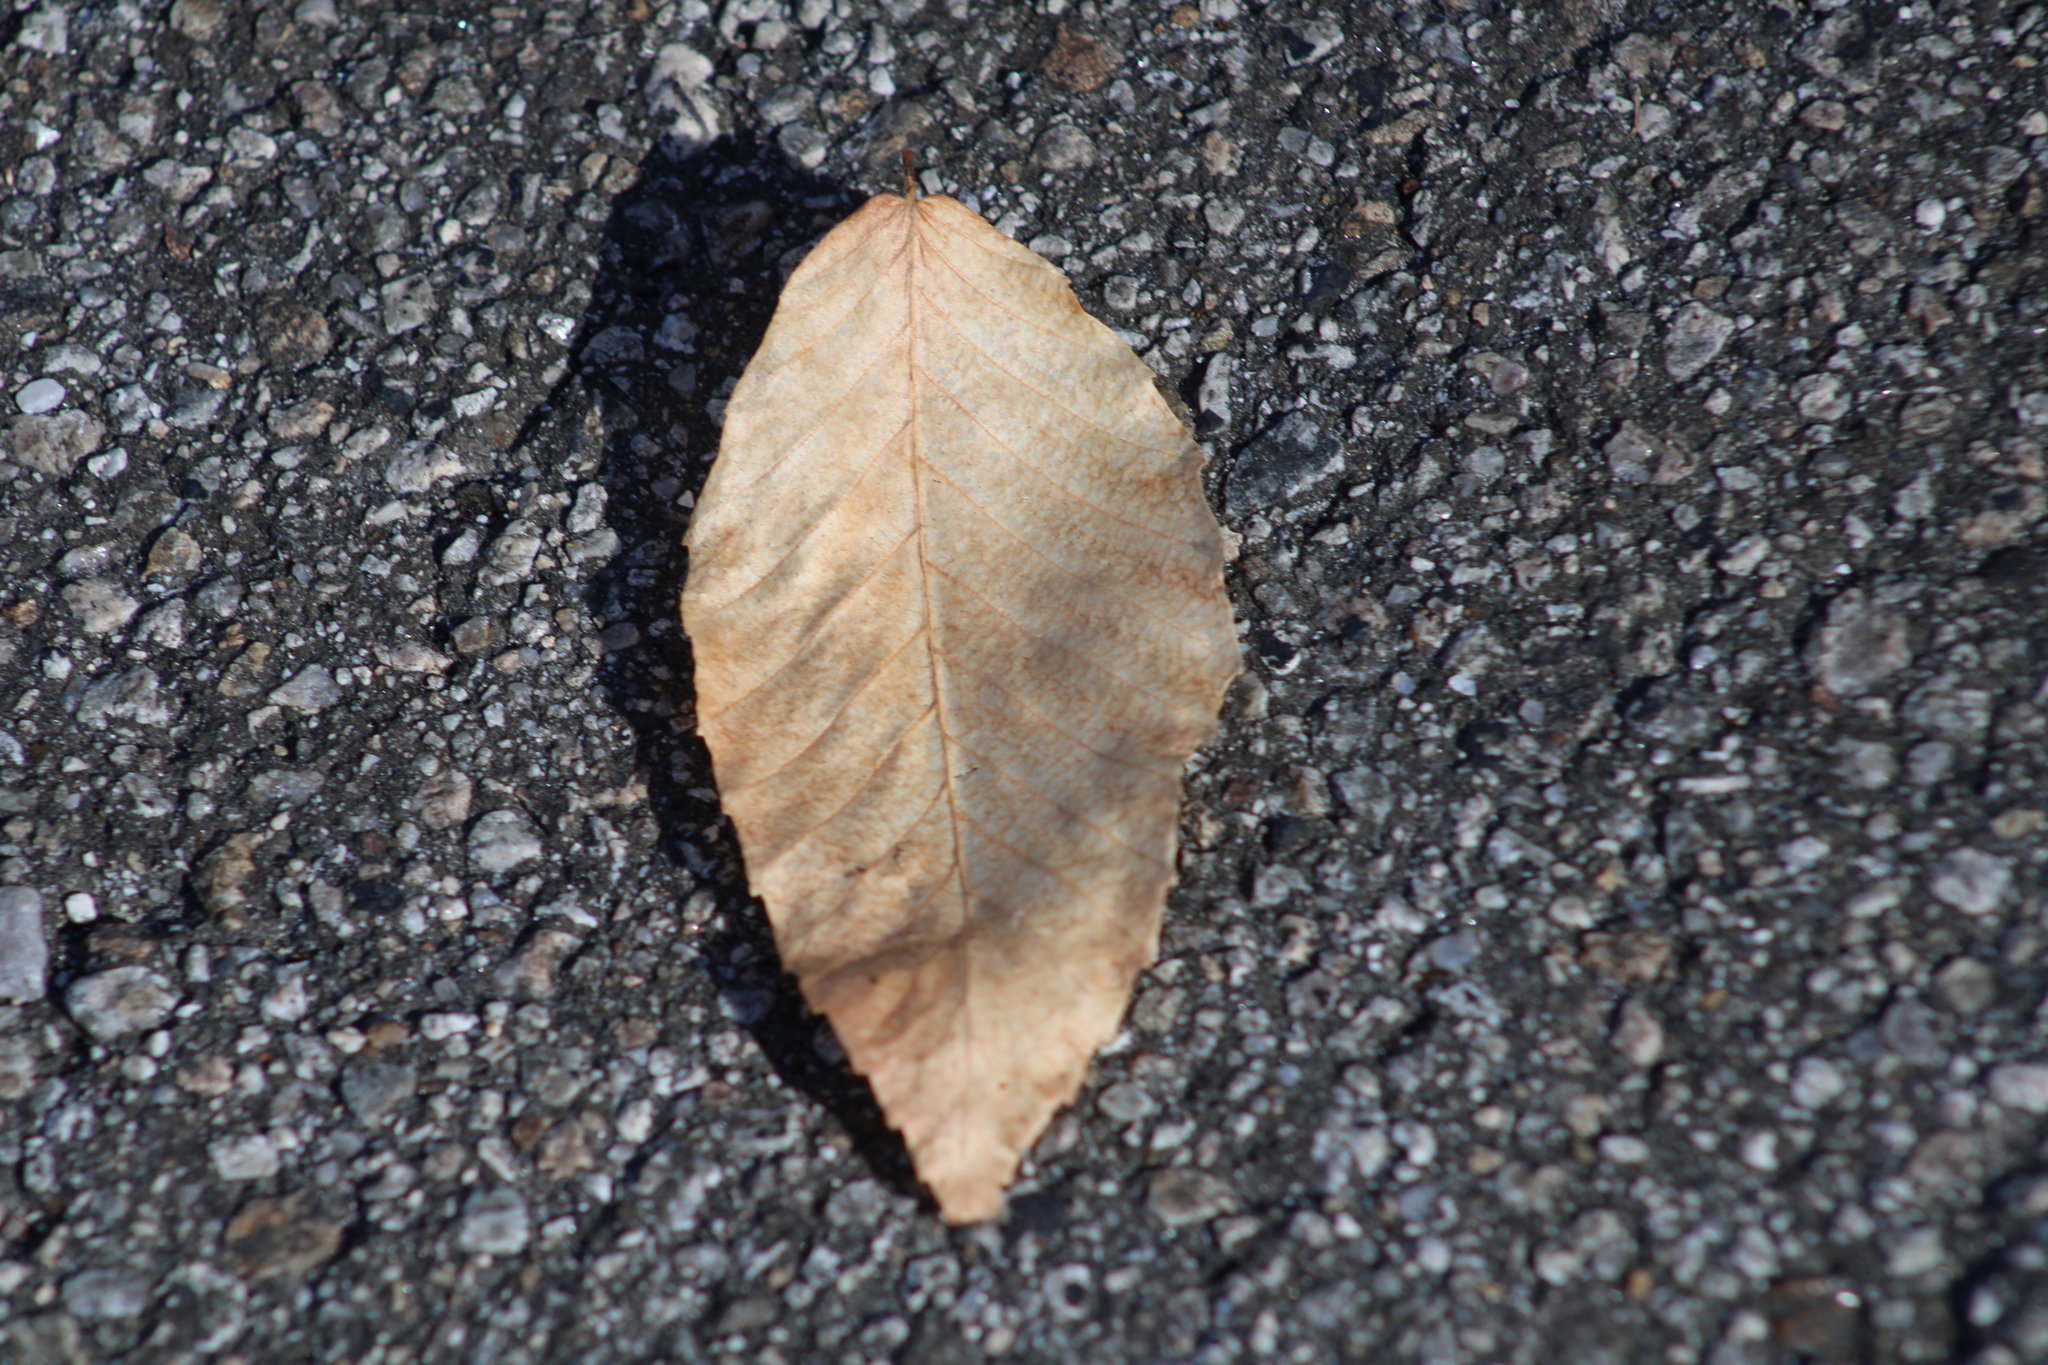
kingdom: Plantae
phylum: Tracheophyta
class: Magnoliopsida
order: Fagales
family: Fagaceae
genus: Fagus
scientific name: Fagus grandifolia
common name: American beech
